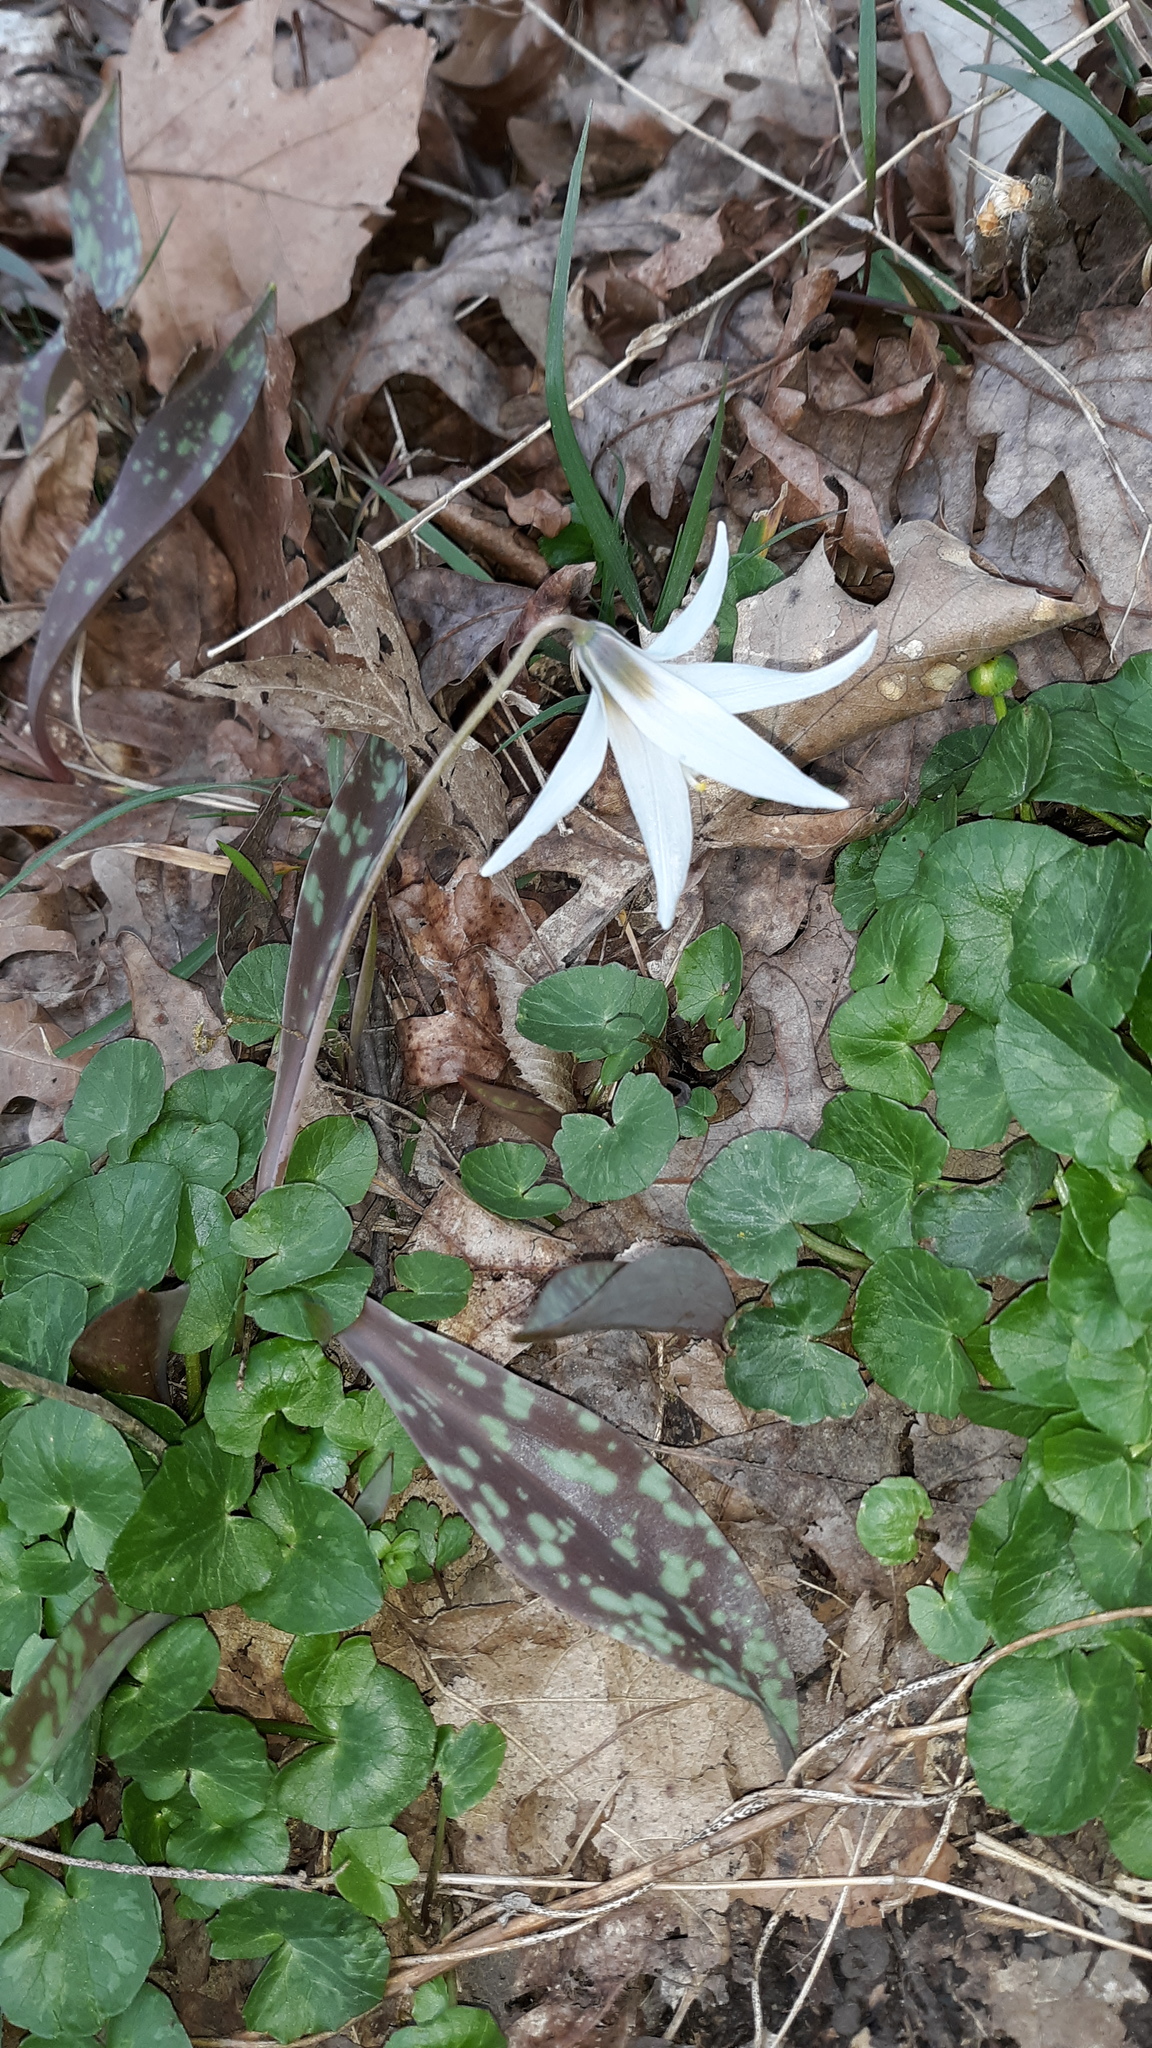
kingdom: Plantae
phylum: Tracheophyta
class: Liliopsida
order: Liliales
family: Liliaceae
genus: Erythronium
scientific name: Erythronium albidum
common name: White trout-lily
